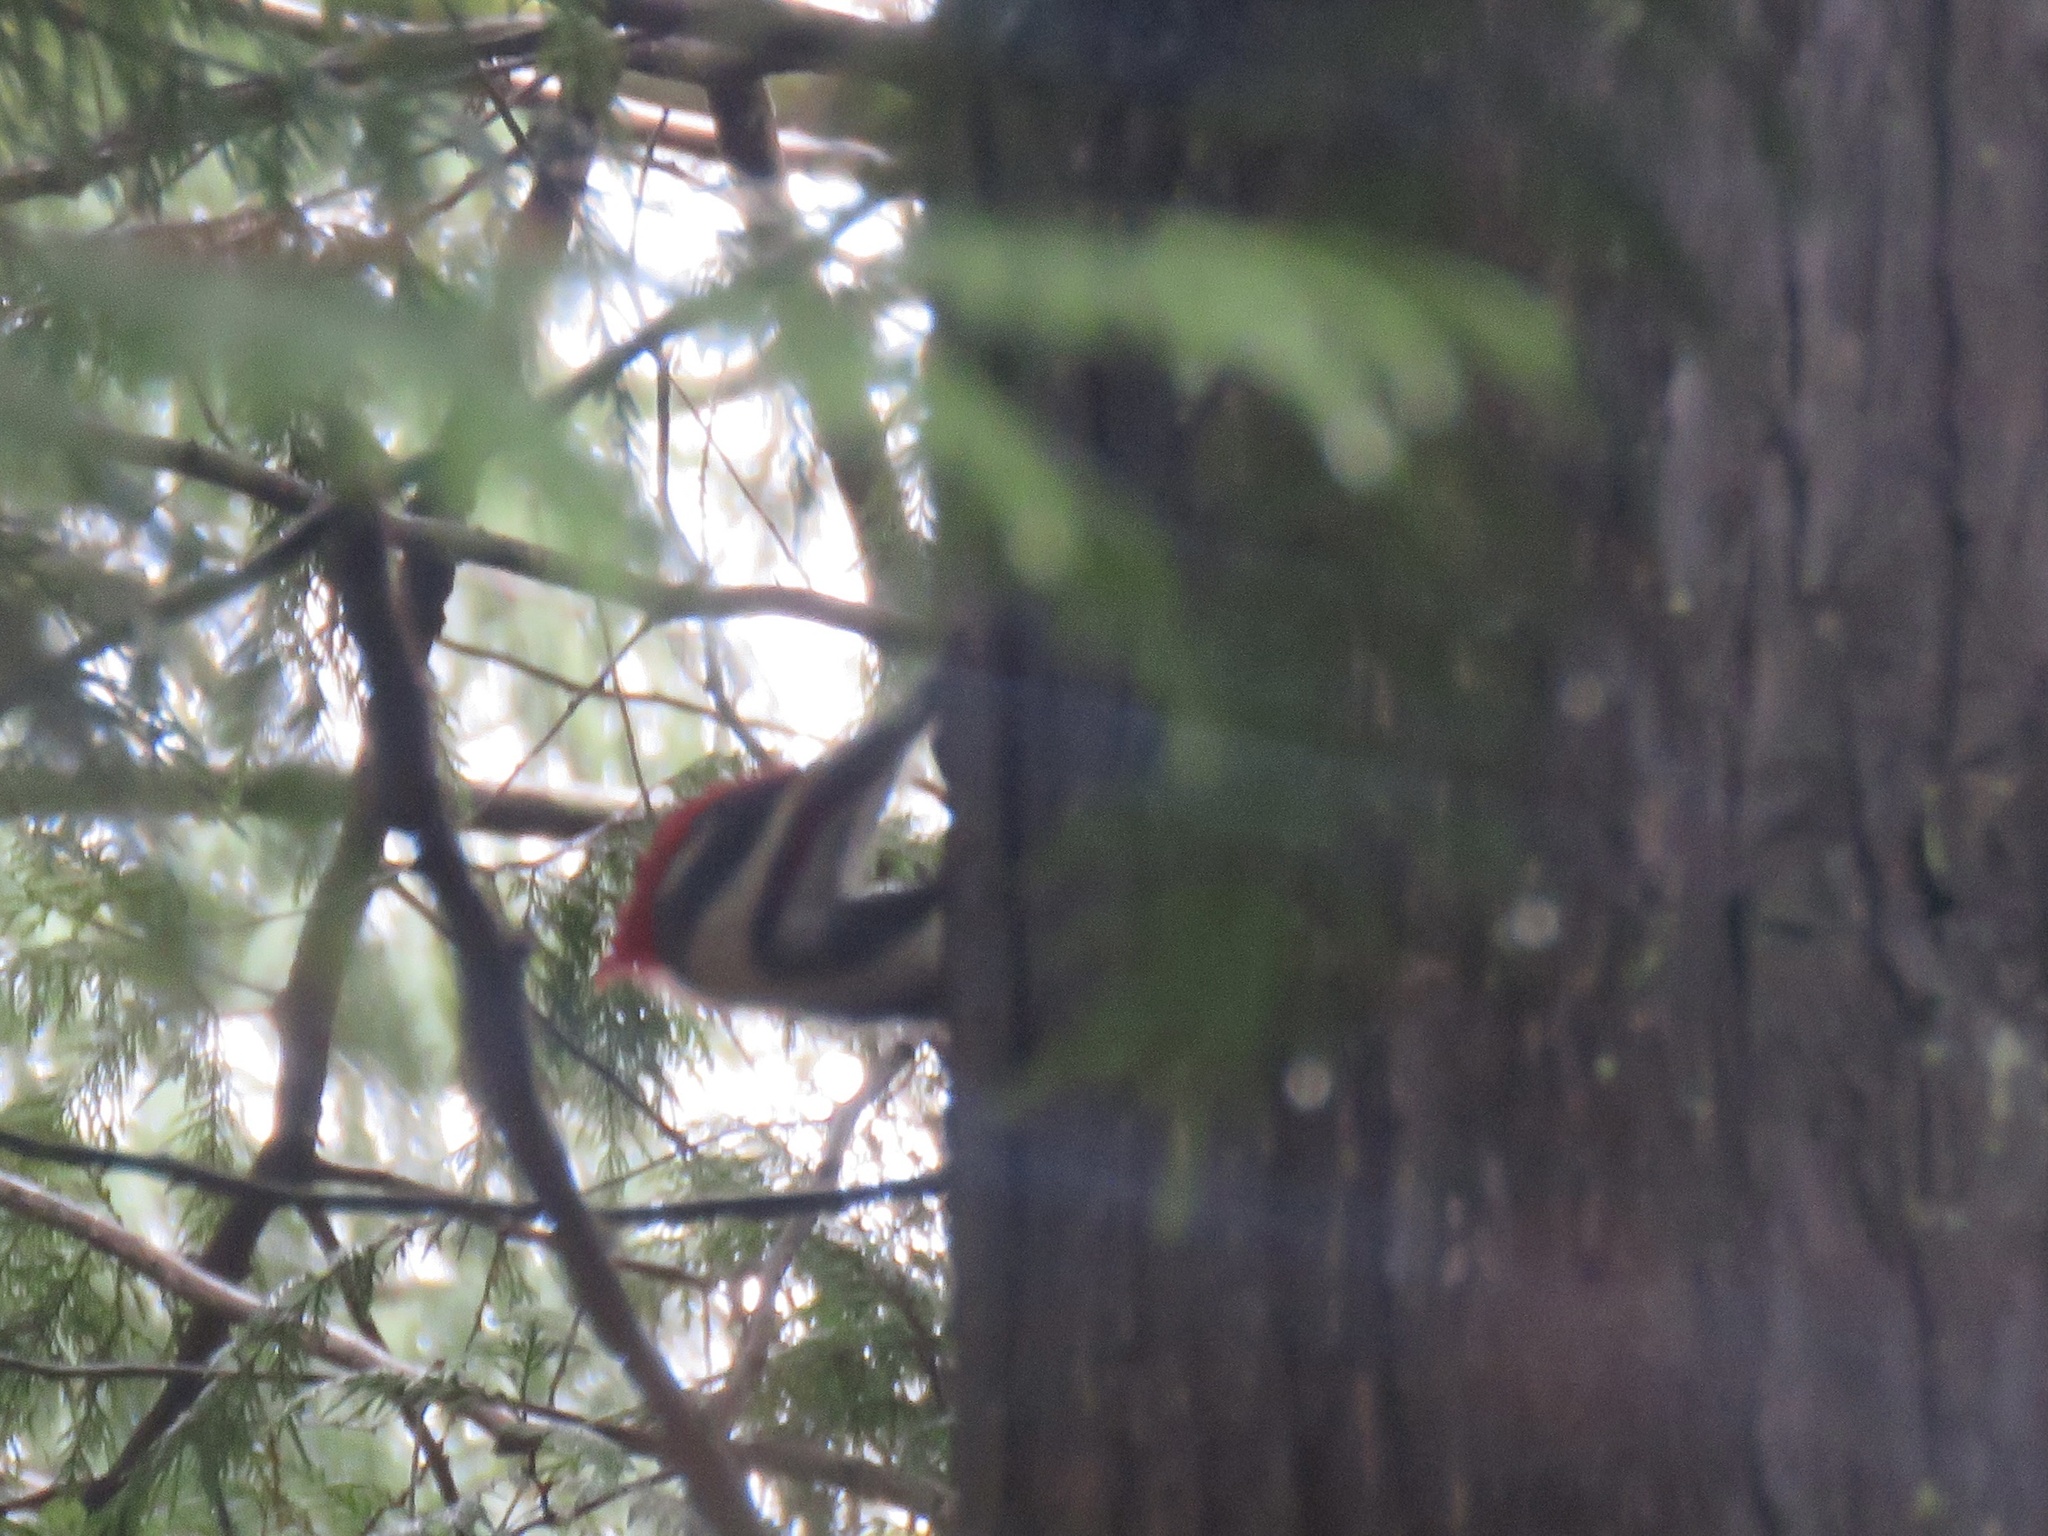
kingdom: Animalia
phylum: Chordata
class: Aves
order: Piciformes
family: Picidae
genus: Dryocopus
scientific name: Dryocopus pileatus
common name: Pileated woodpecker
